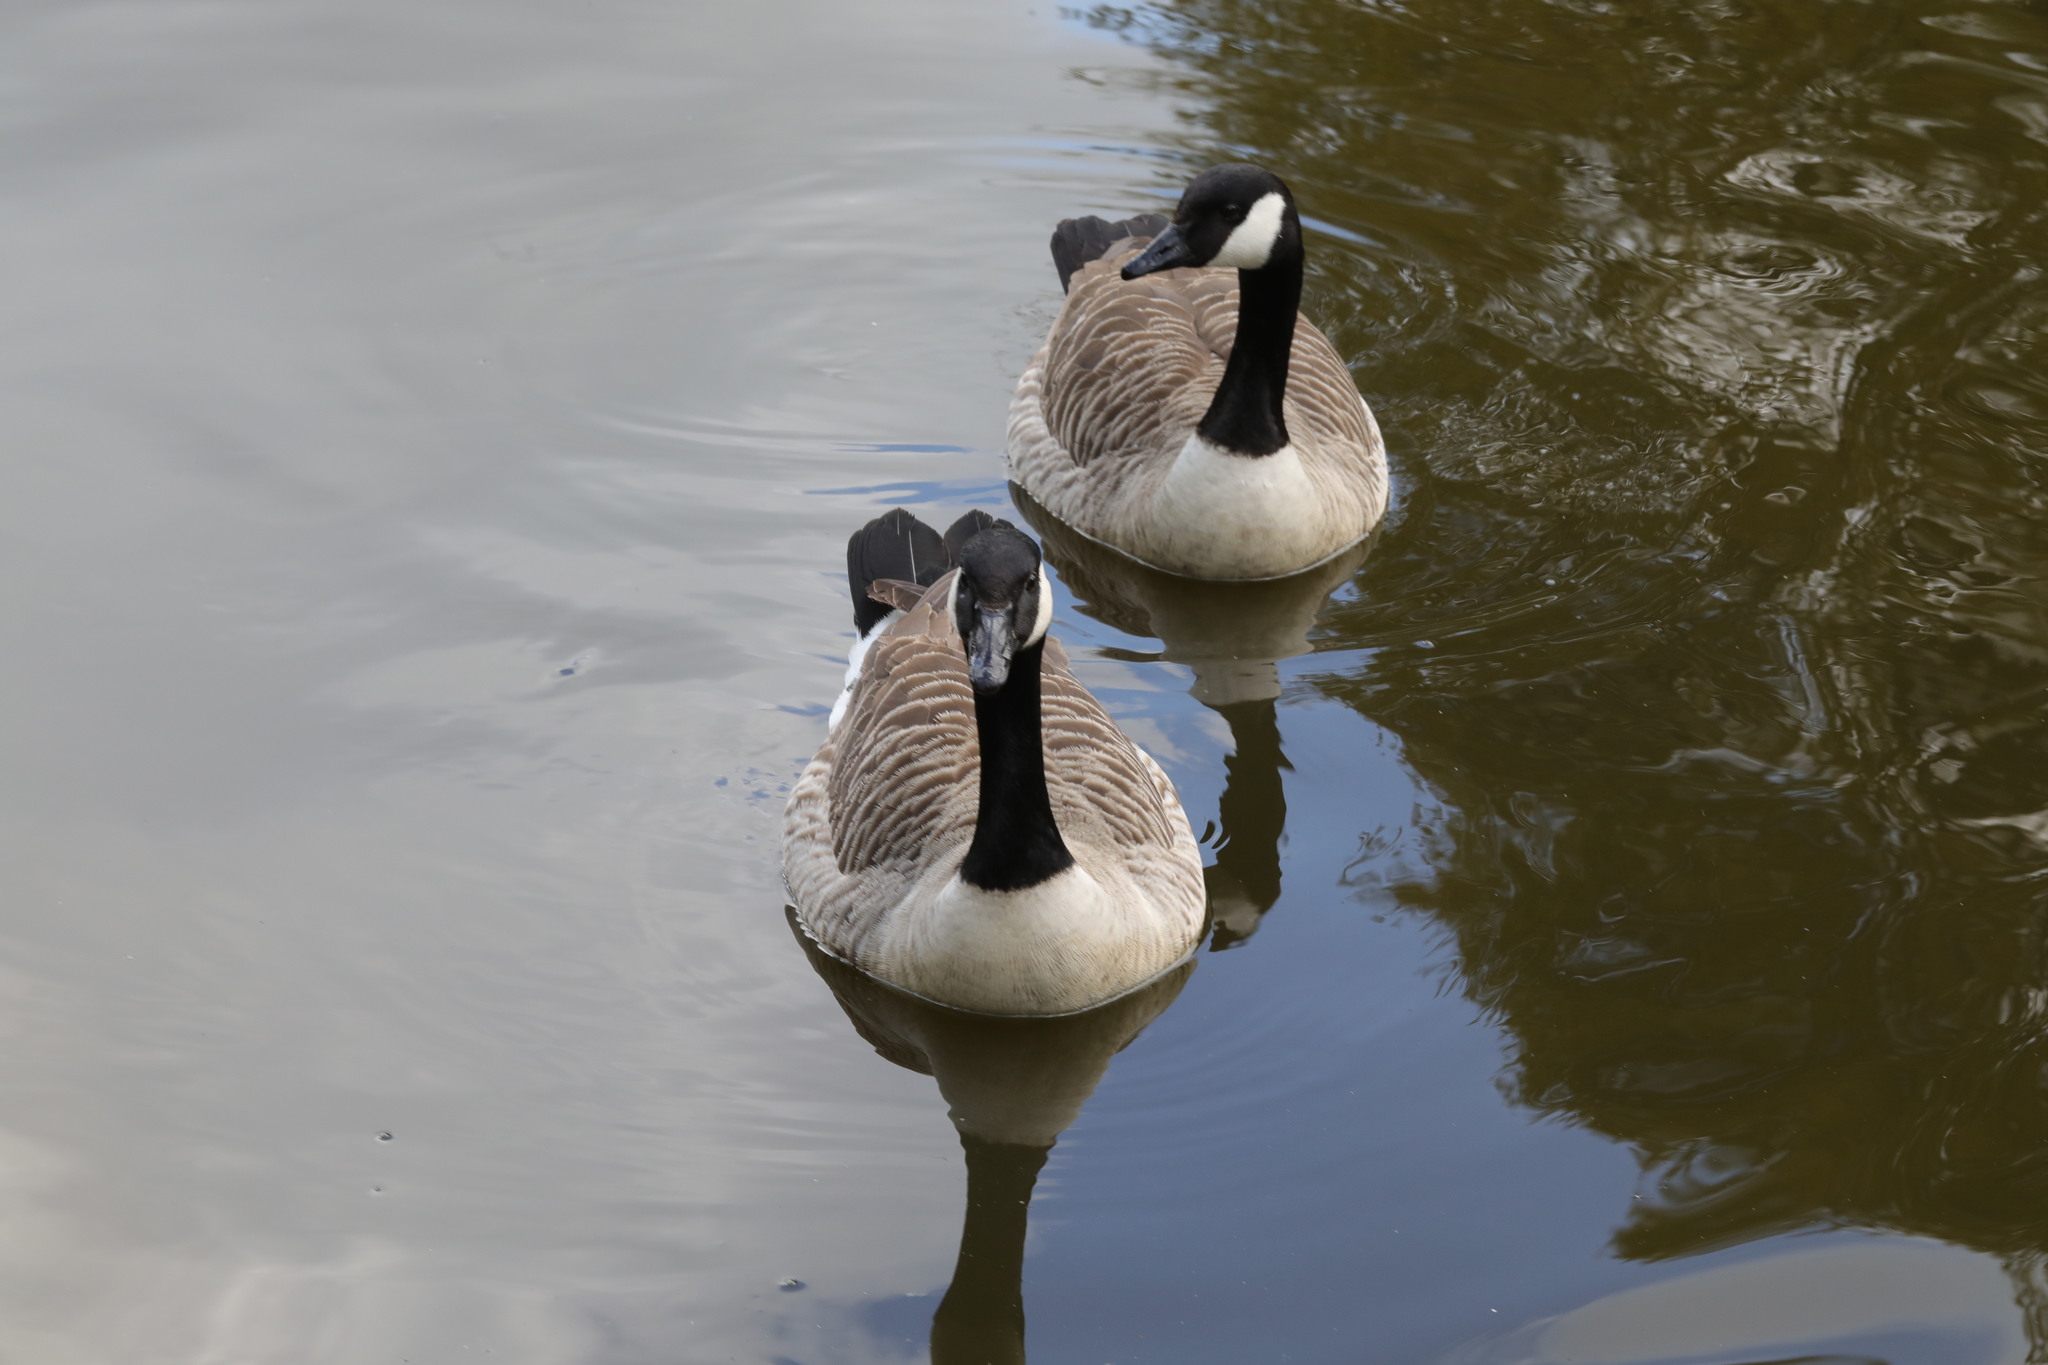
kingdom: Animalia
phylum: Chordata
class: Aves
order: Anseriformes
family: Anatidae
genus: Branta
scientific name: Branta canadensis
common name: Canada goose
